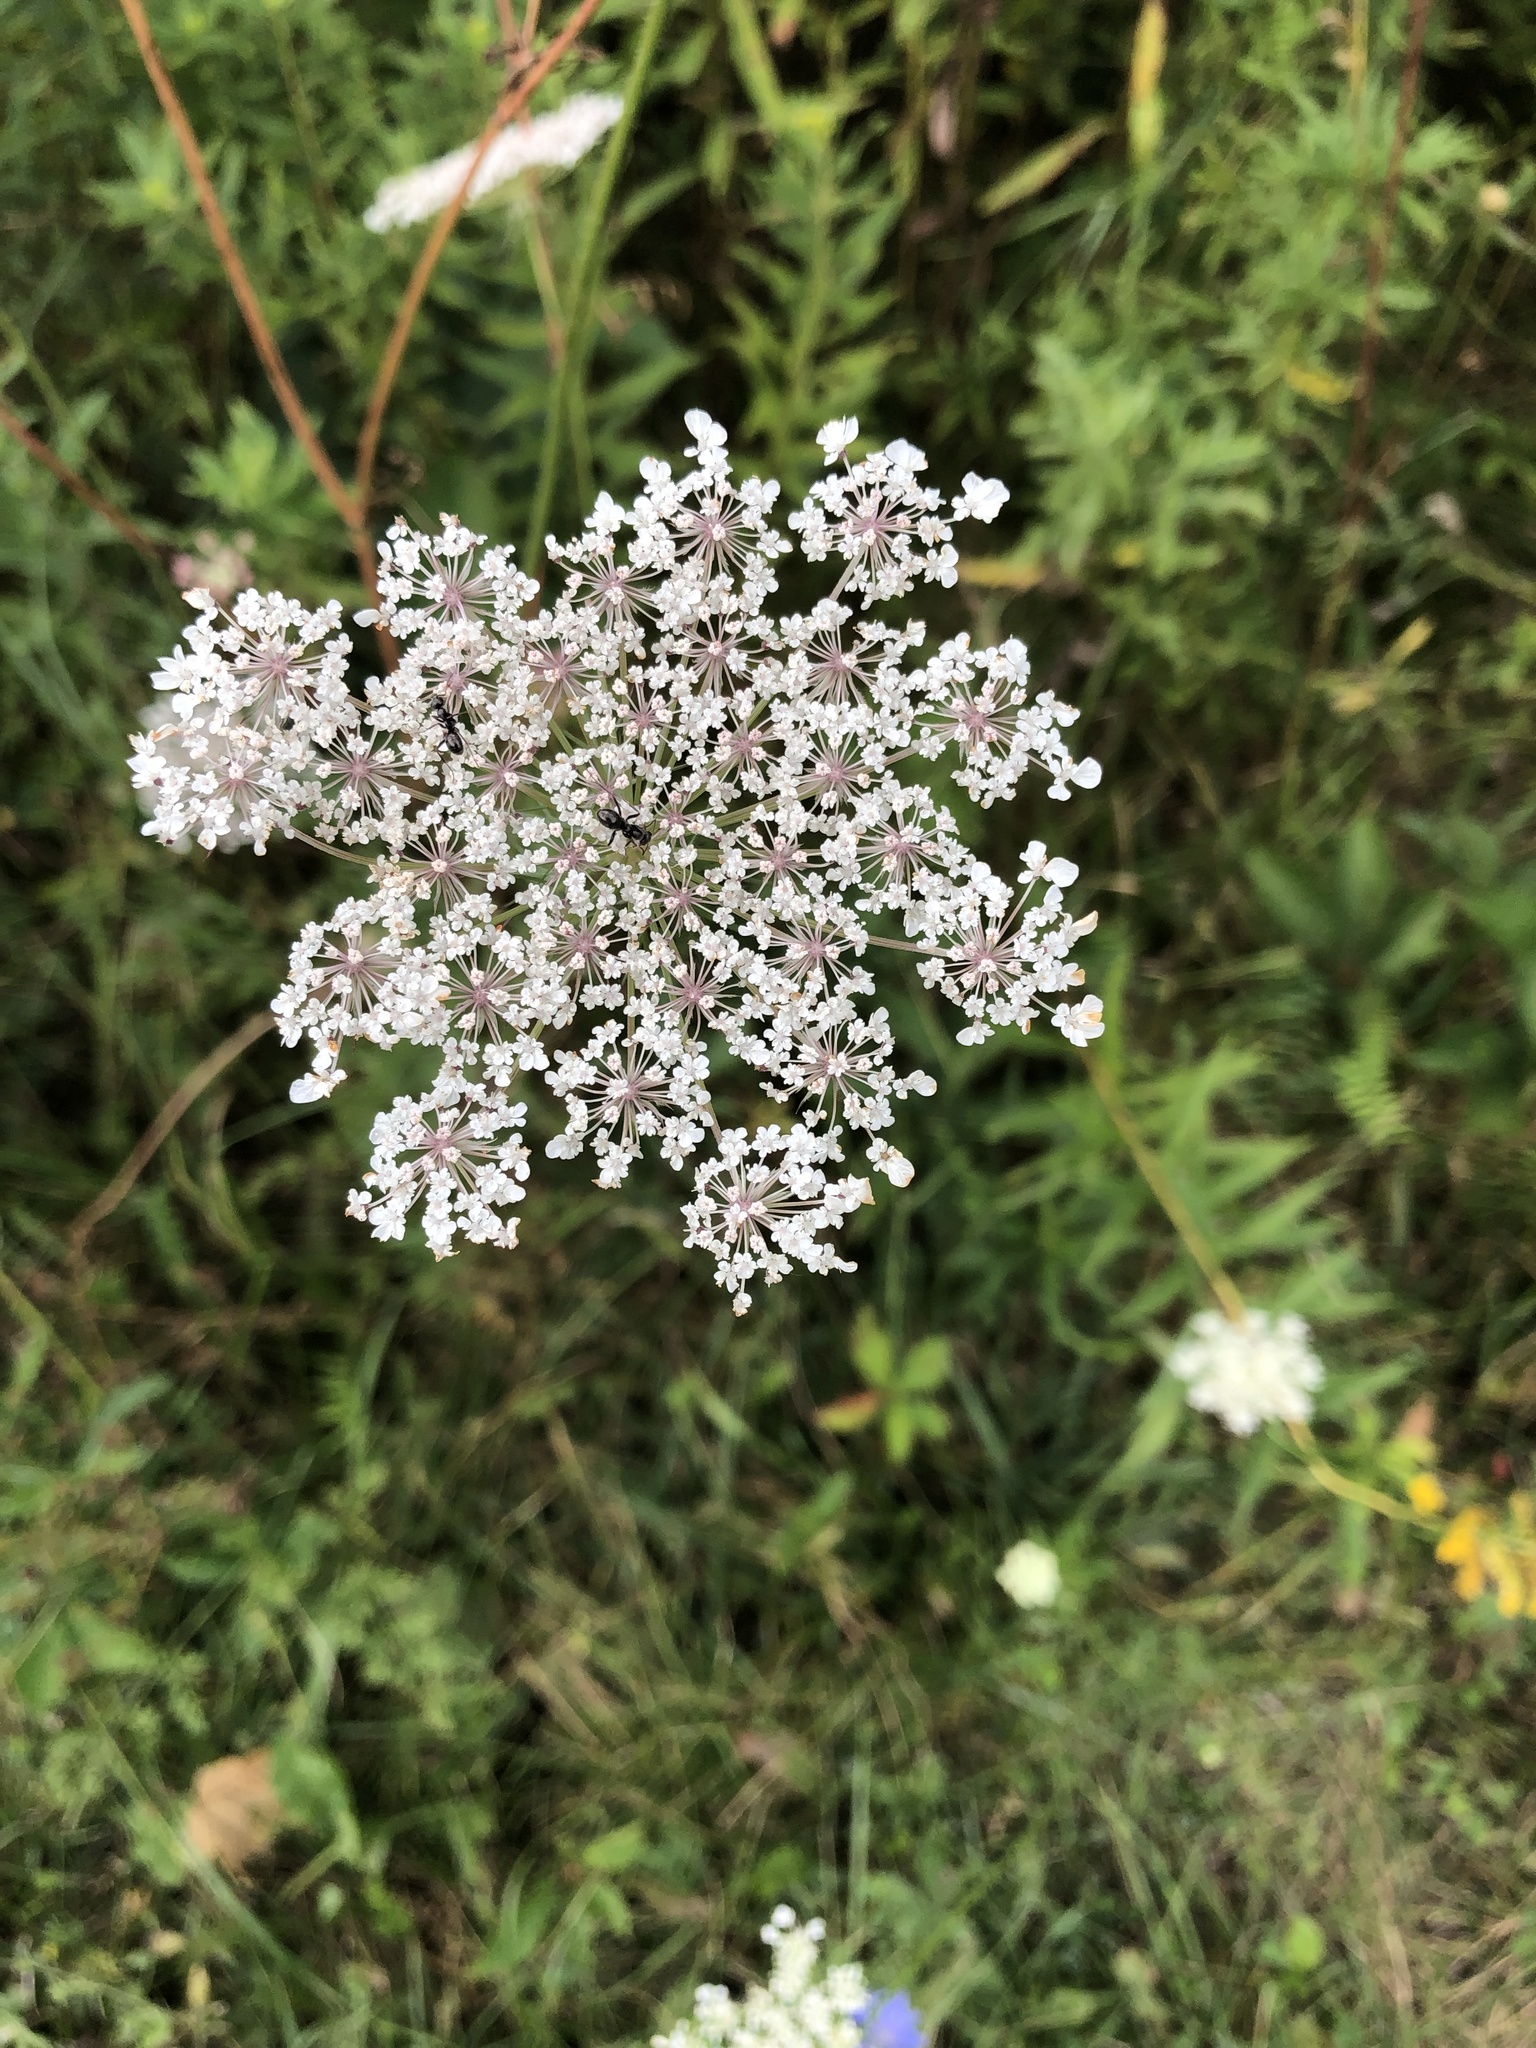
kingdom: Plantae
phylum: Tracheophyta
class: Magnoliopsida
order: Apiales
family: Apiaceae
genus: Daucus
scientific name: Daucus carota
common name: Wild carrot
